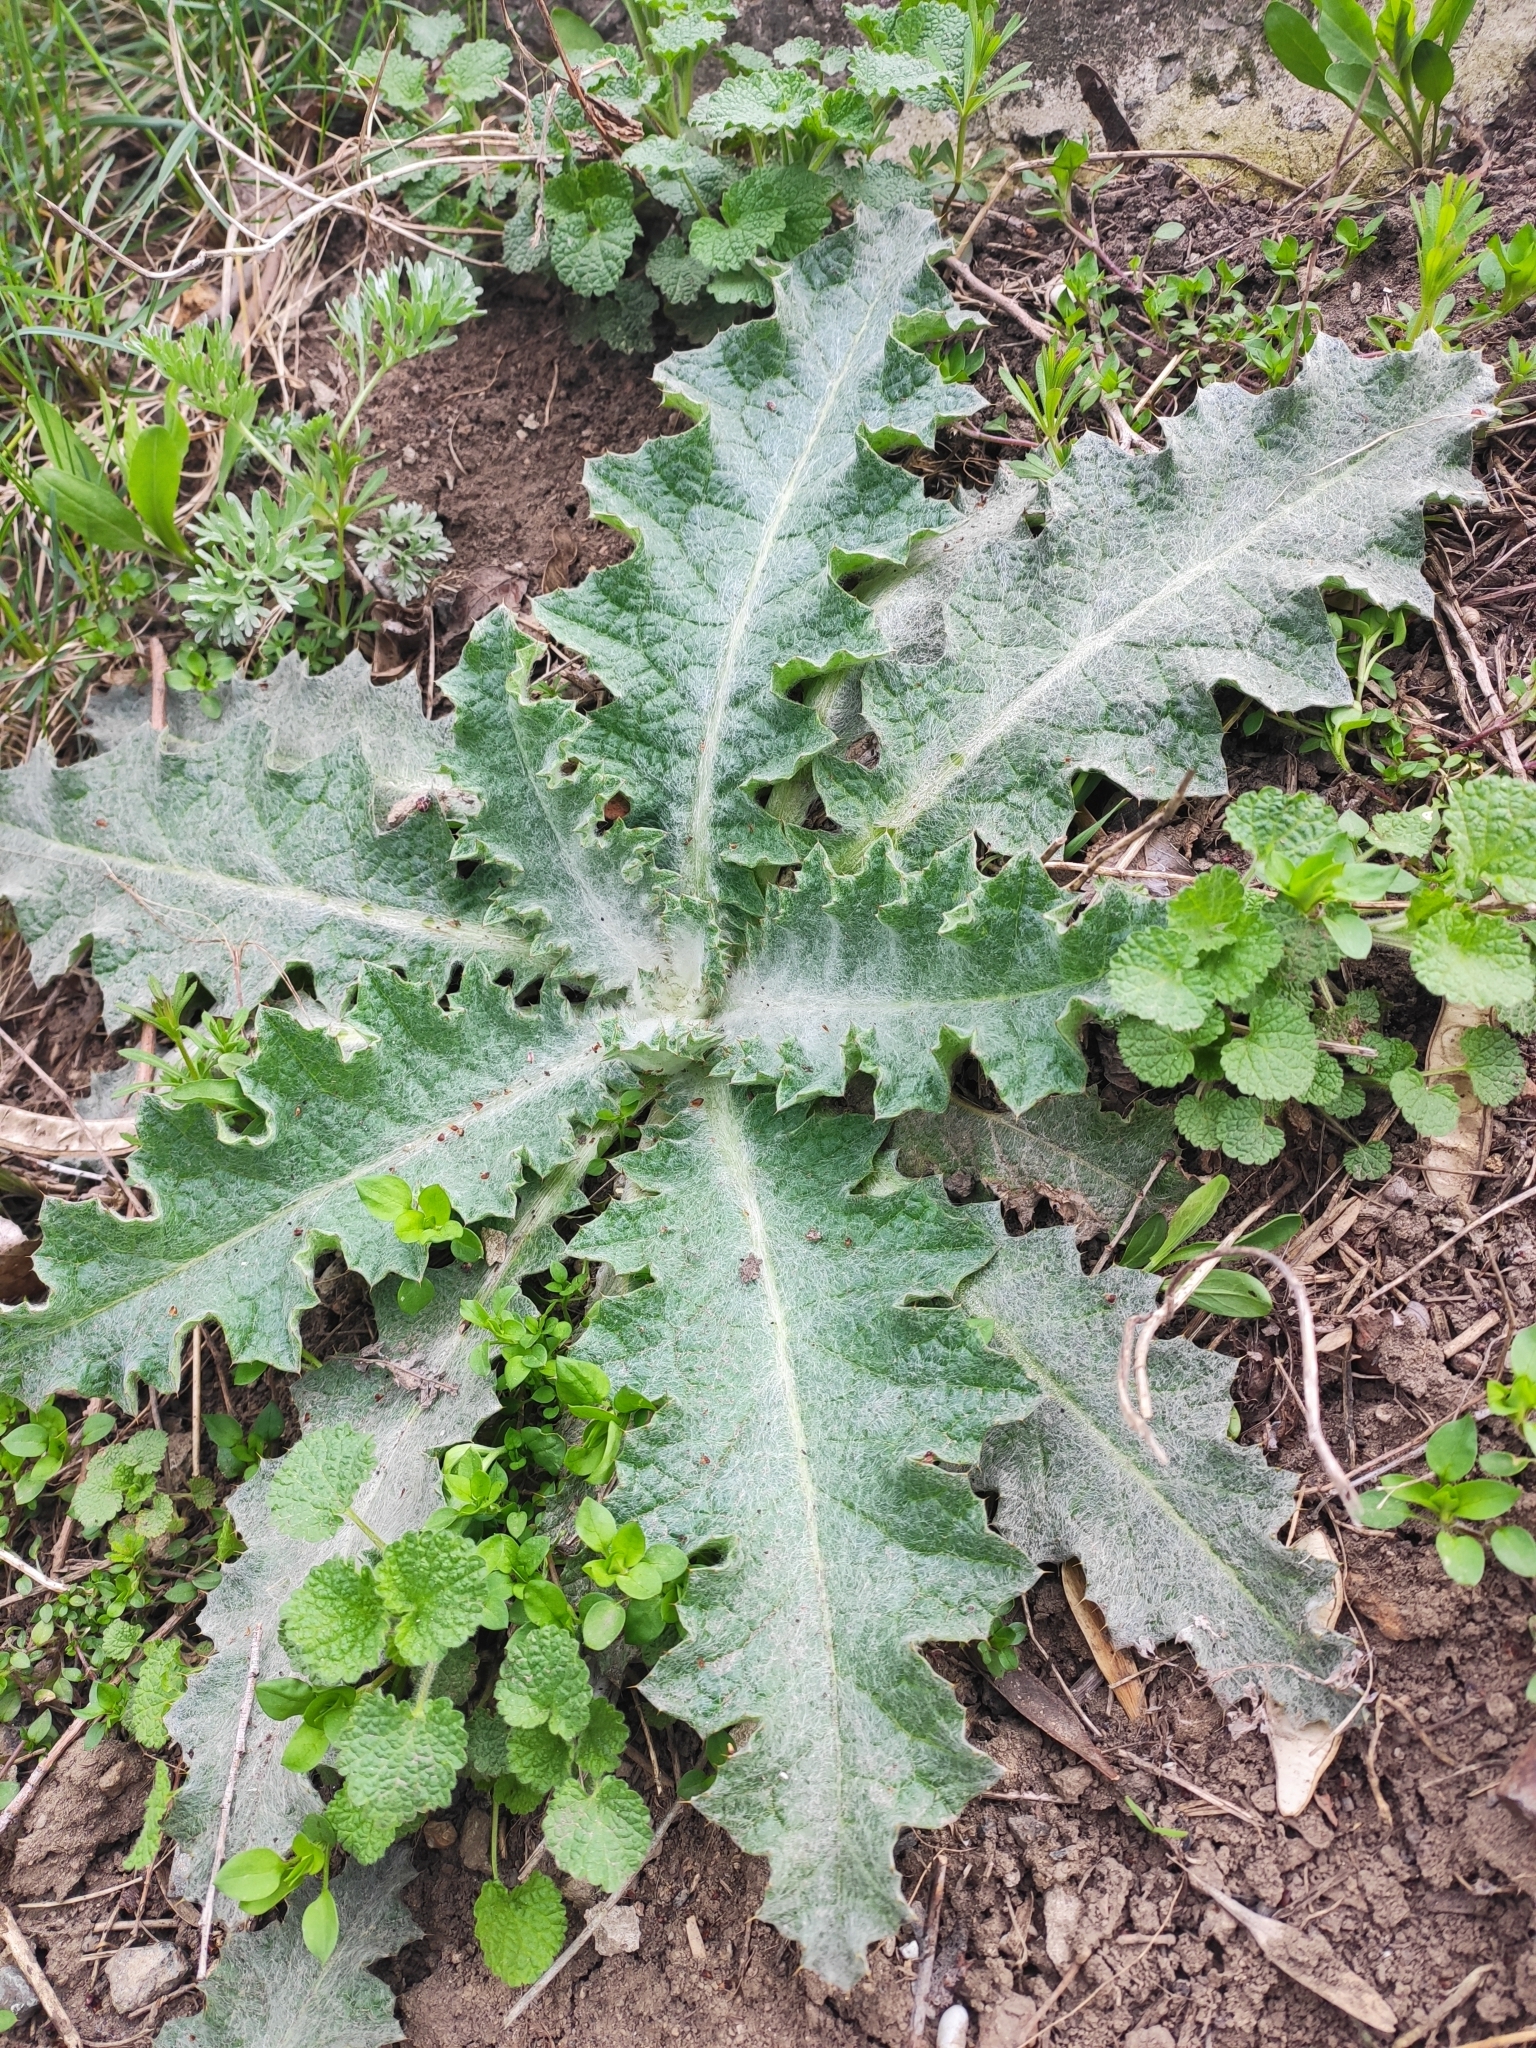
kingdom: Plantae
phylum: Tracheophyta
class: Magnoliopsida
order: Asterales
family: Asteraceae
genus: Onopordum
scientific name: Onopordum acanthium
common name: Scotch thistle
